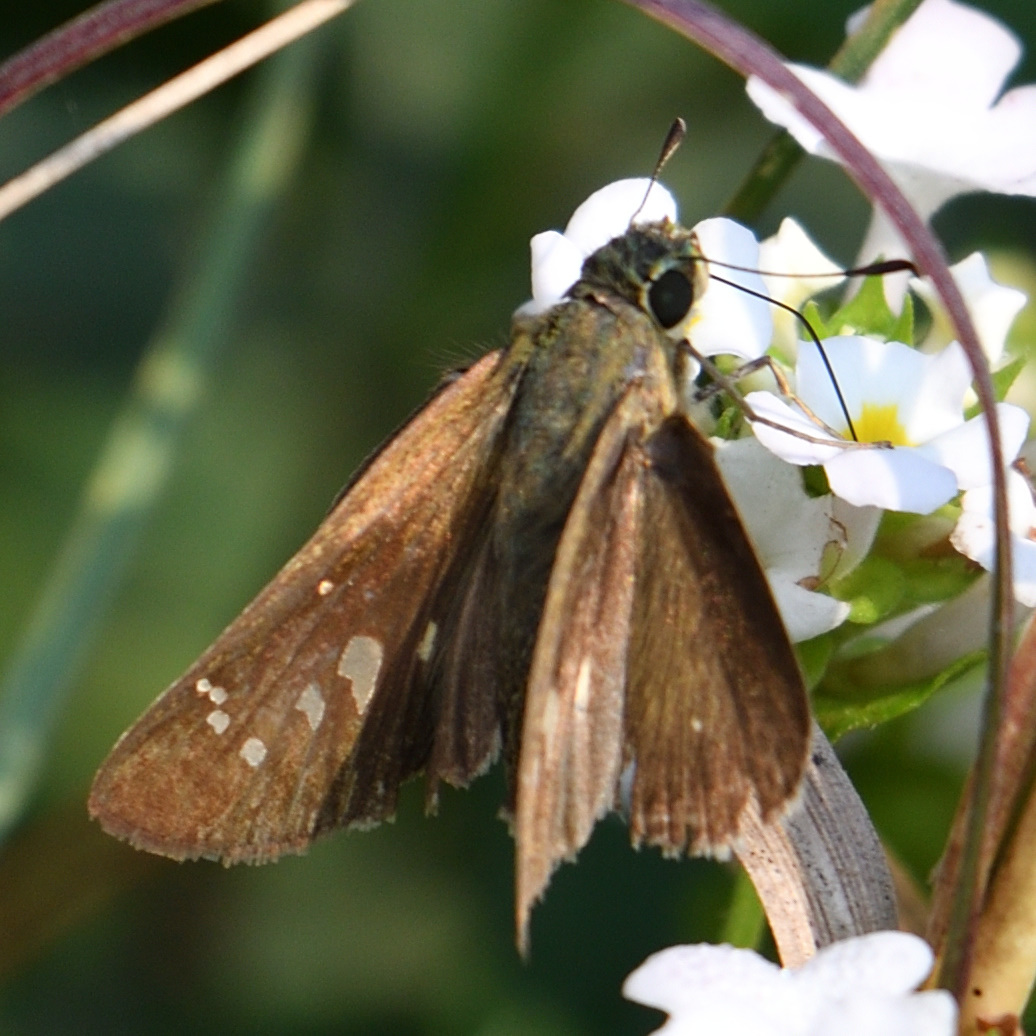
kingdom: Animalia
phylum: Arthropoda
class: Insecta
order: Lepidoptera
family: Hesperiidae
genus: Borbo
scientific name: Borbo cinnara
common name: Formosan swift
